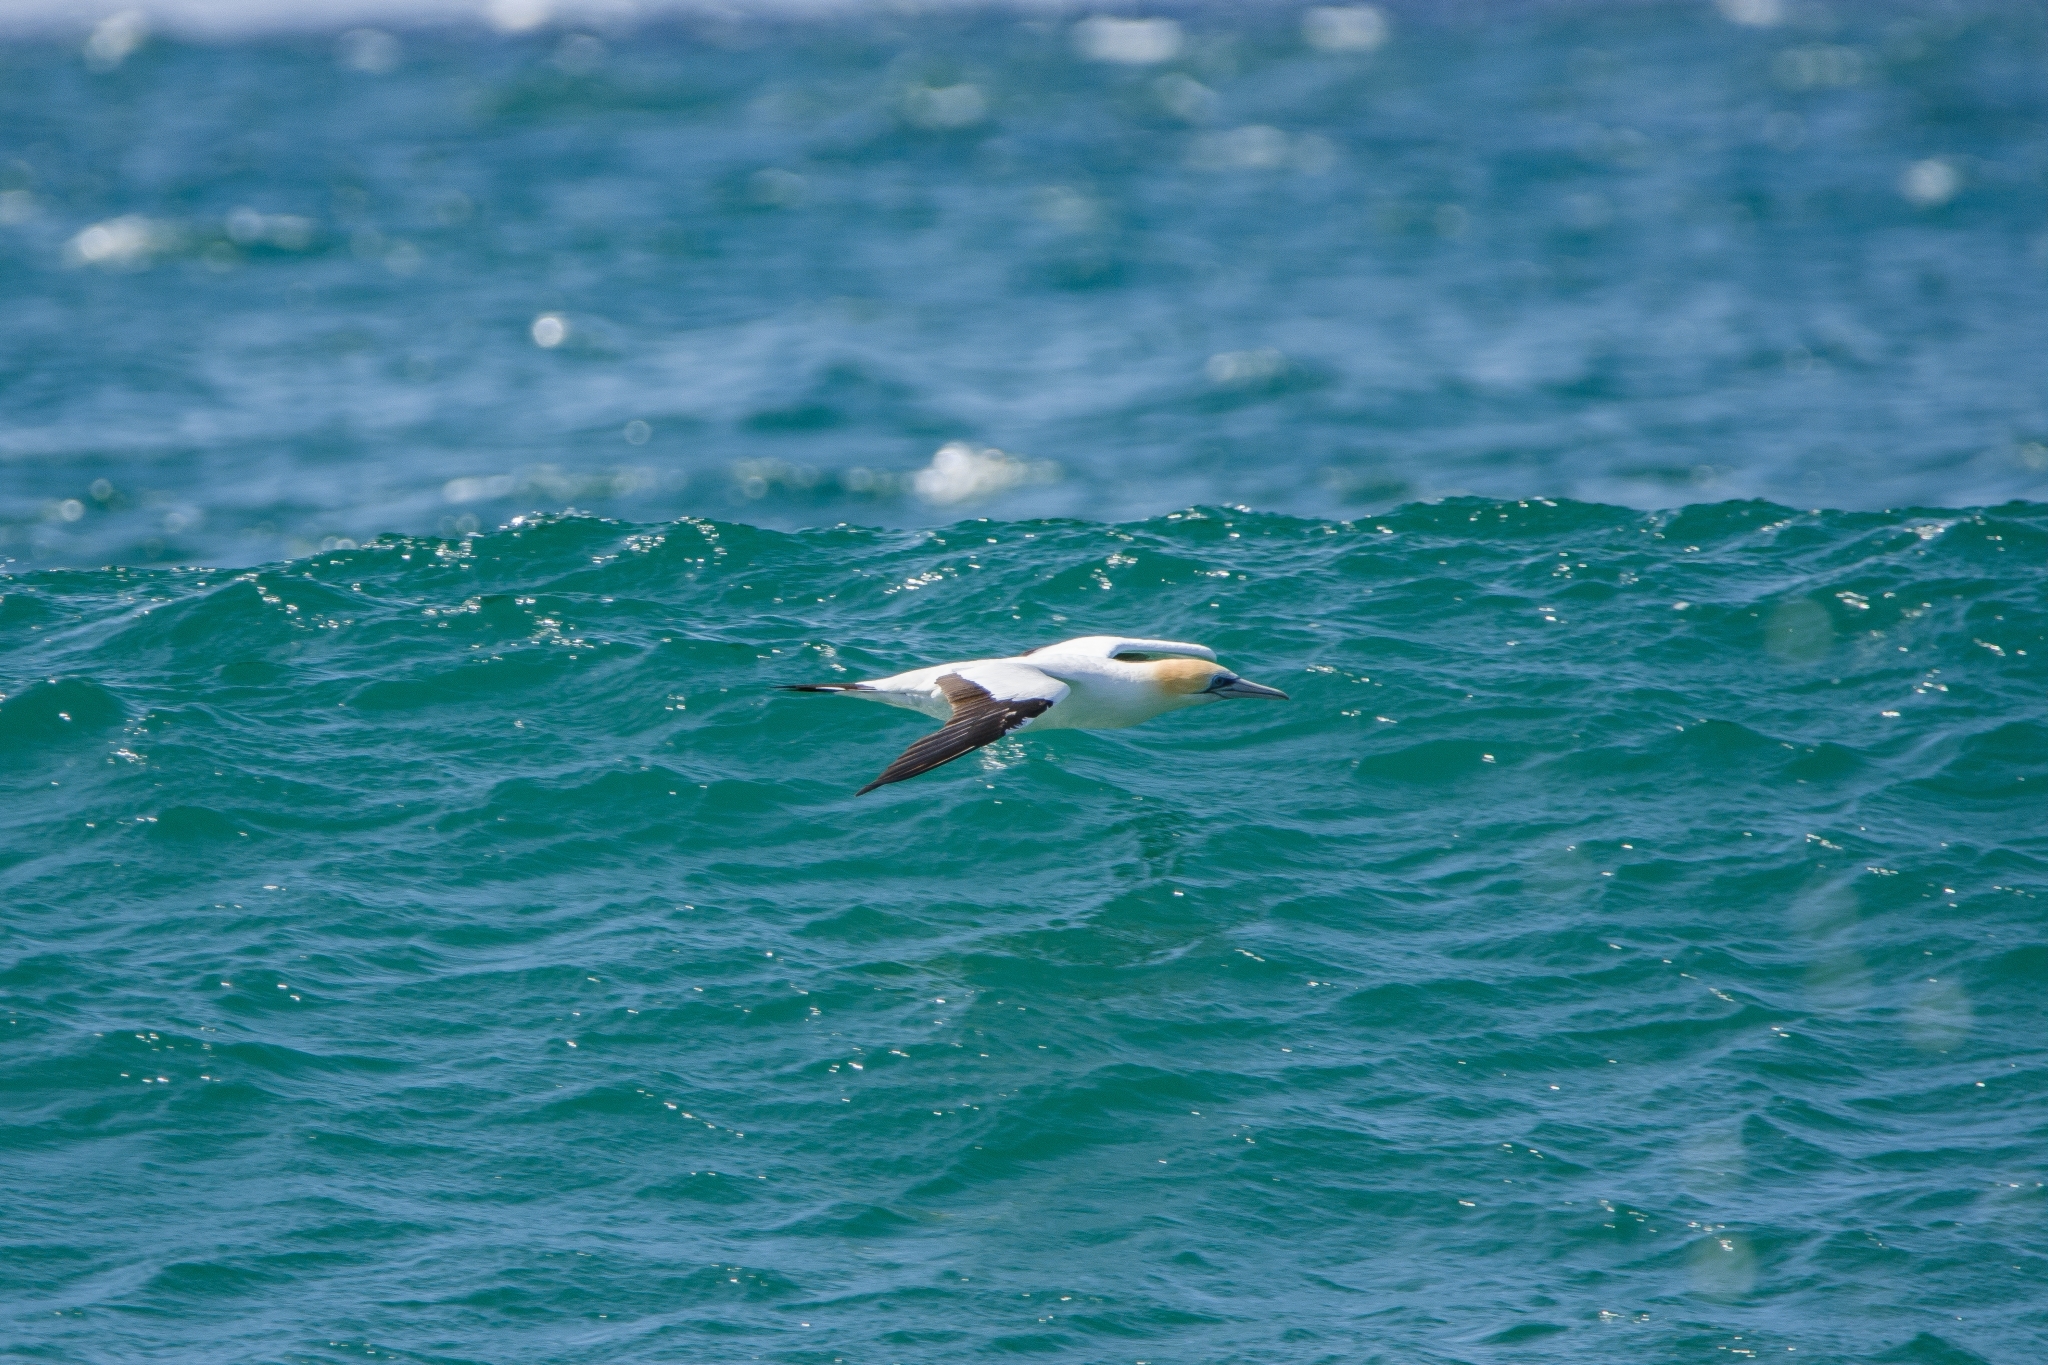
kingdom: Animalia
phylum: Chordata
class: Aves
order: Suliformes
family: Sulidae
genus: Morus
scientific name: Morus serrator
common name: Australasian gannet
